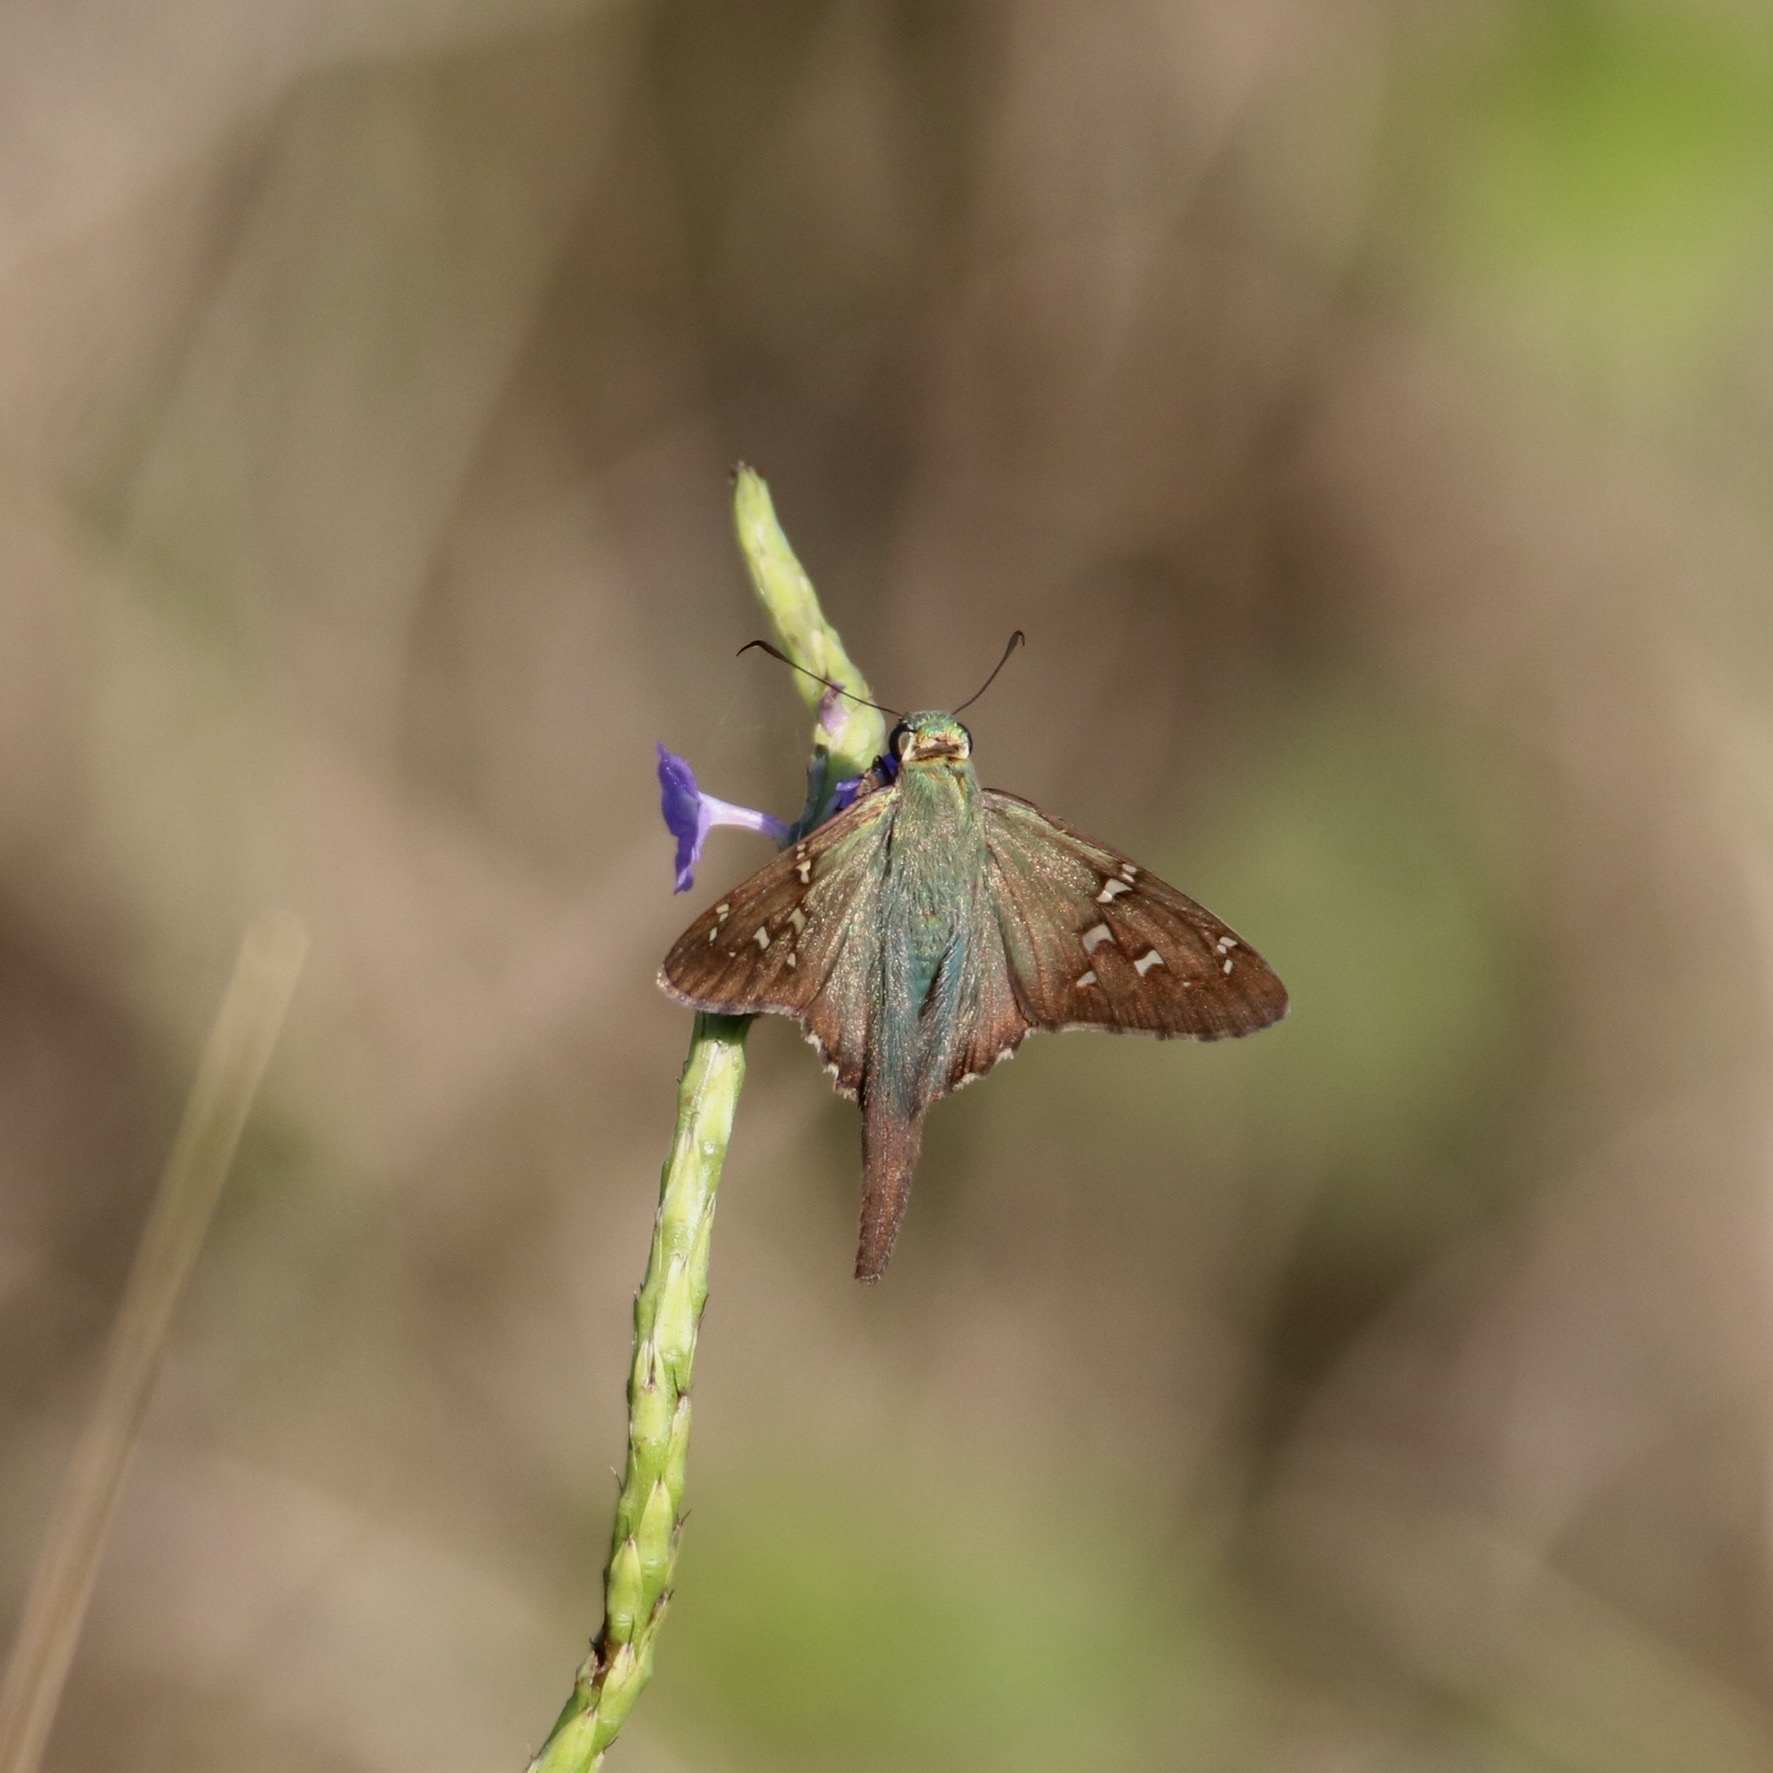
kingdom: Animalia
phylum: Arthropoda
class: Insecta
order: Lepidoptera
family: Hesperiidae
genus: Urbanus
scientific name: Urbanus proteus
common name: Long-tailed skipper
